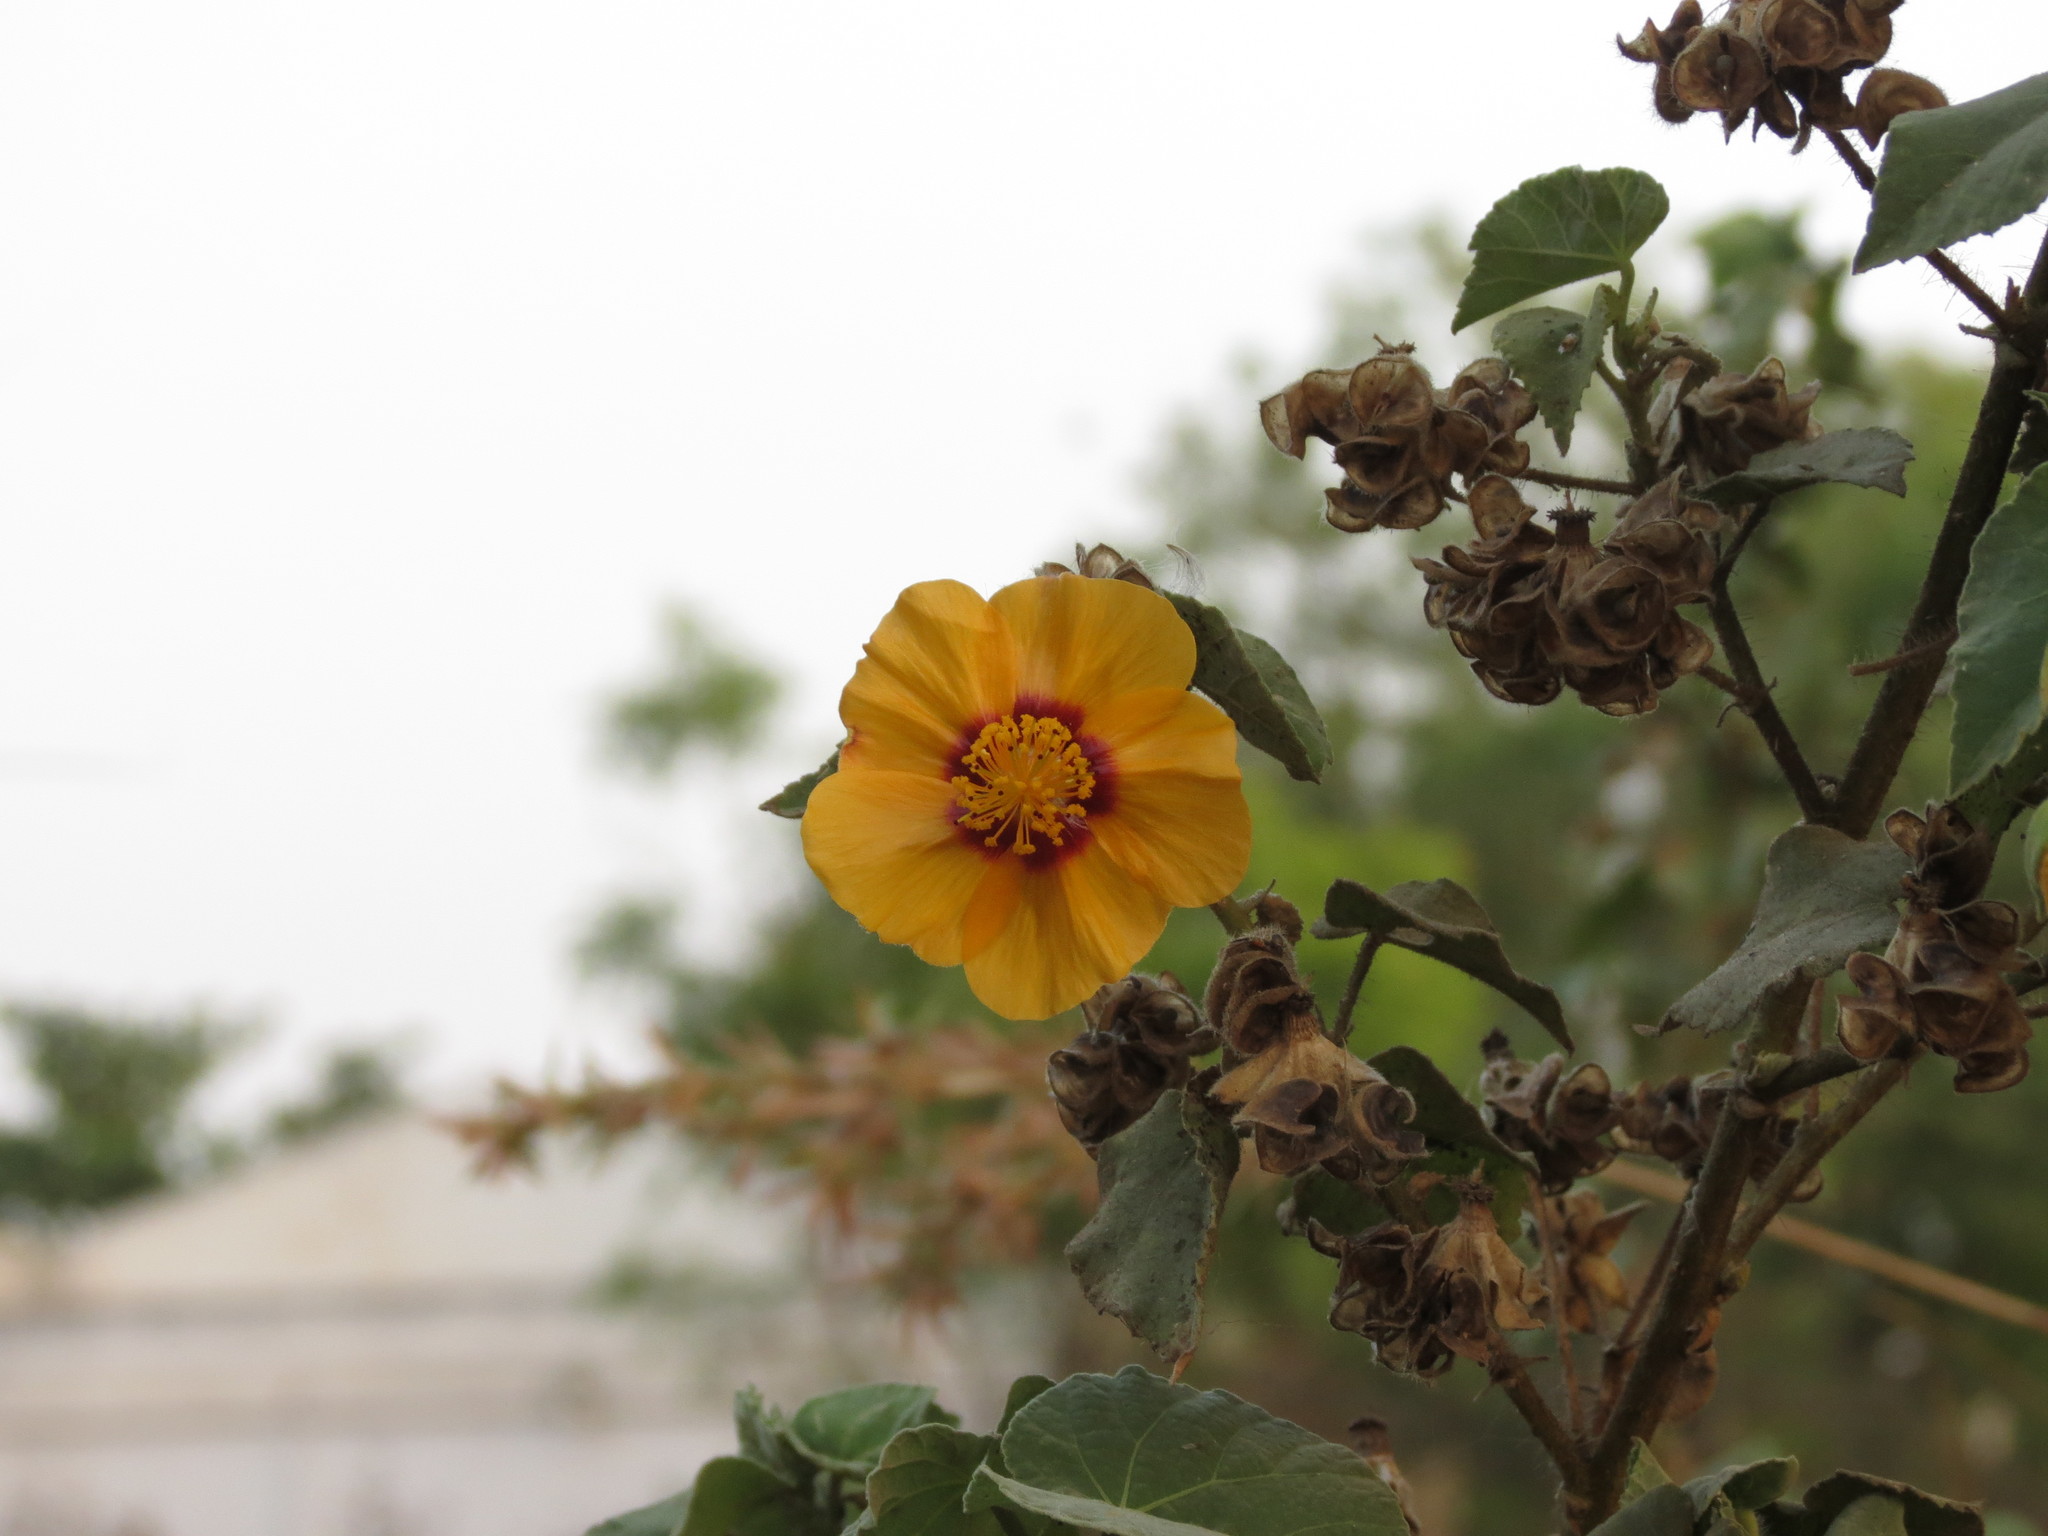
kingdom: Plantae
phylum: Tracheophyta
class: Magnoliopsida
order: Malvales
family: Malvaceae
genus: Abutilon
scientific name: Abutilon hirtum
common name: Florida keys indian mallow
